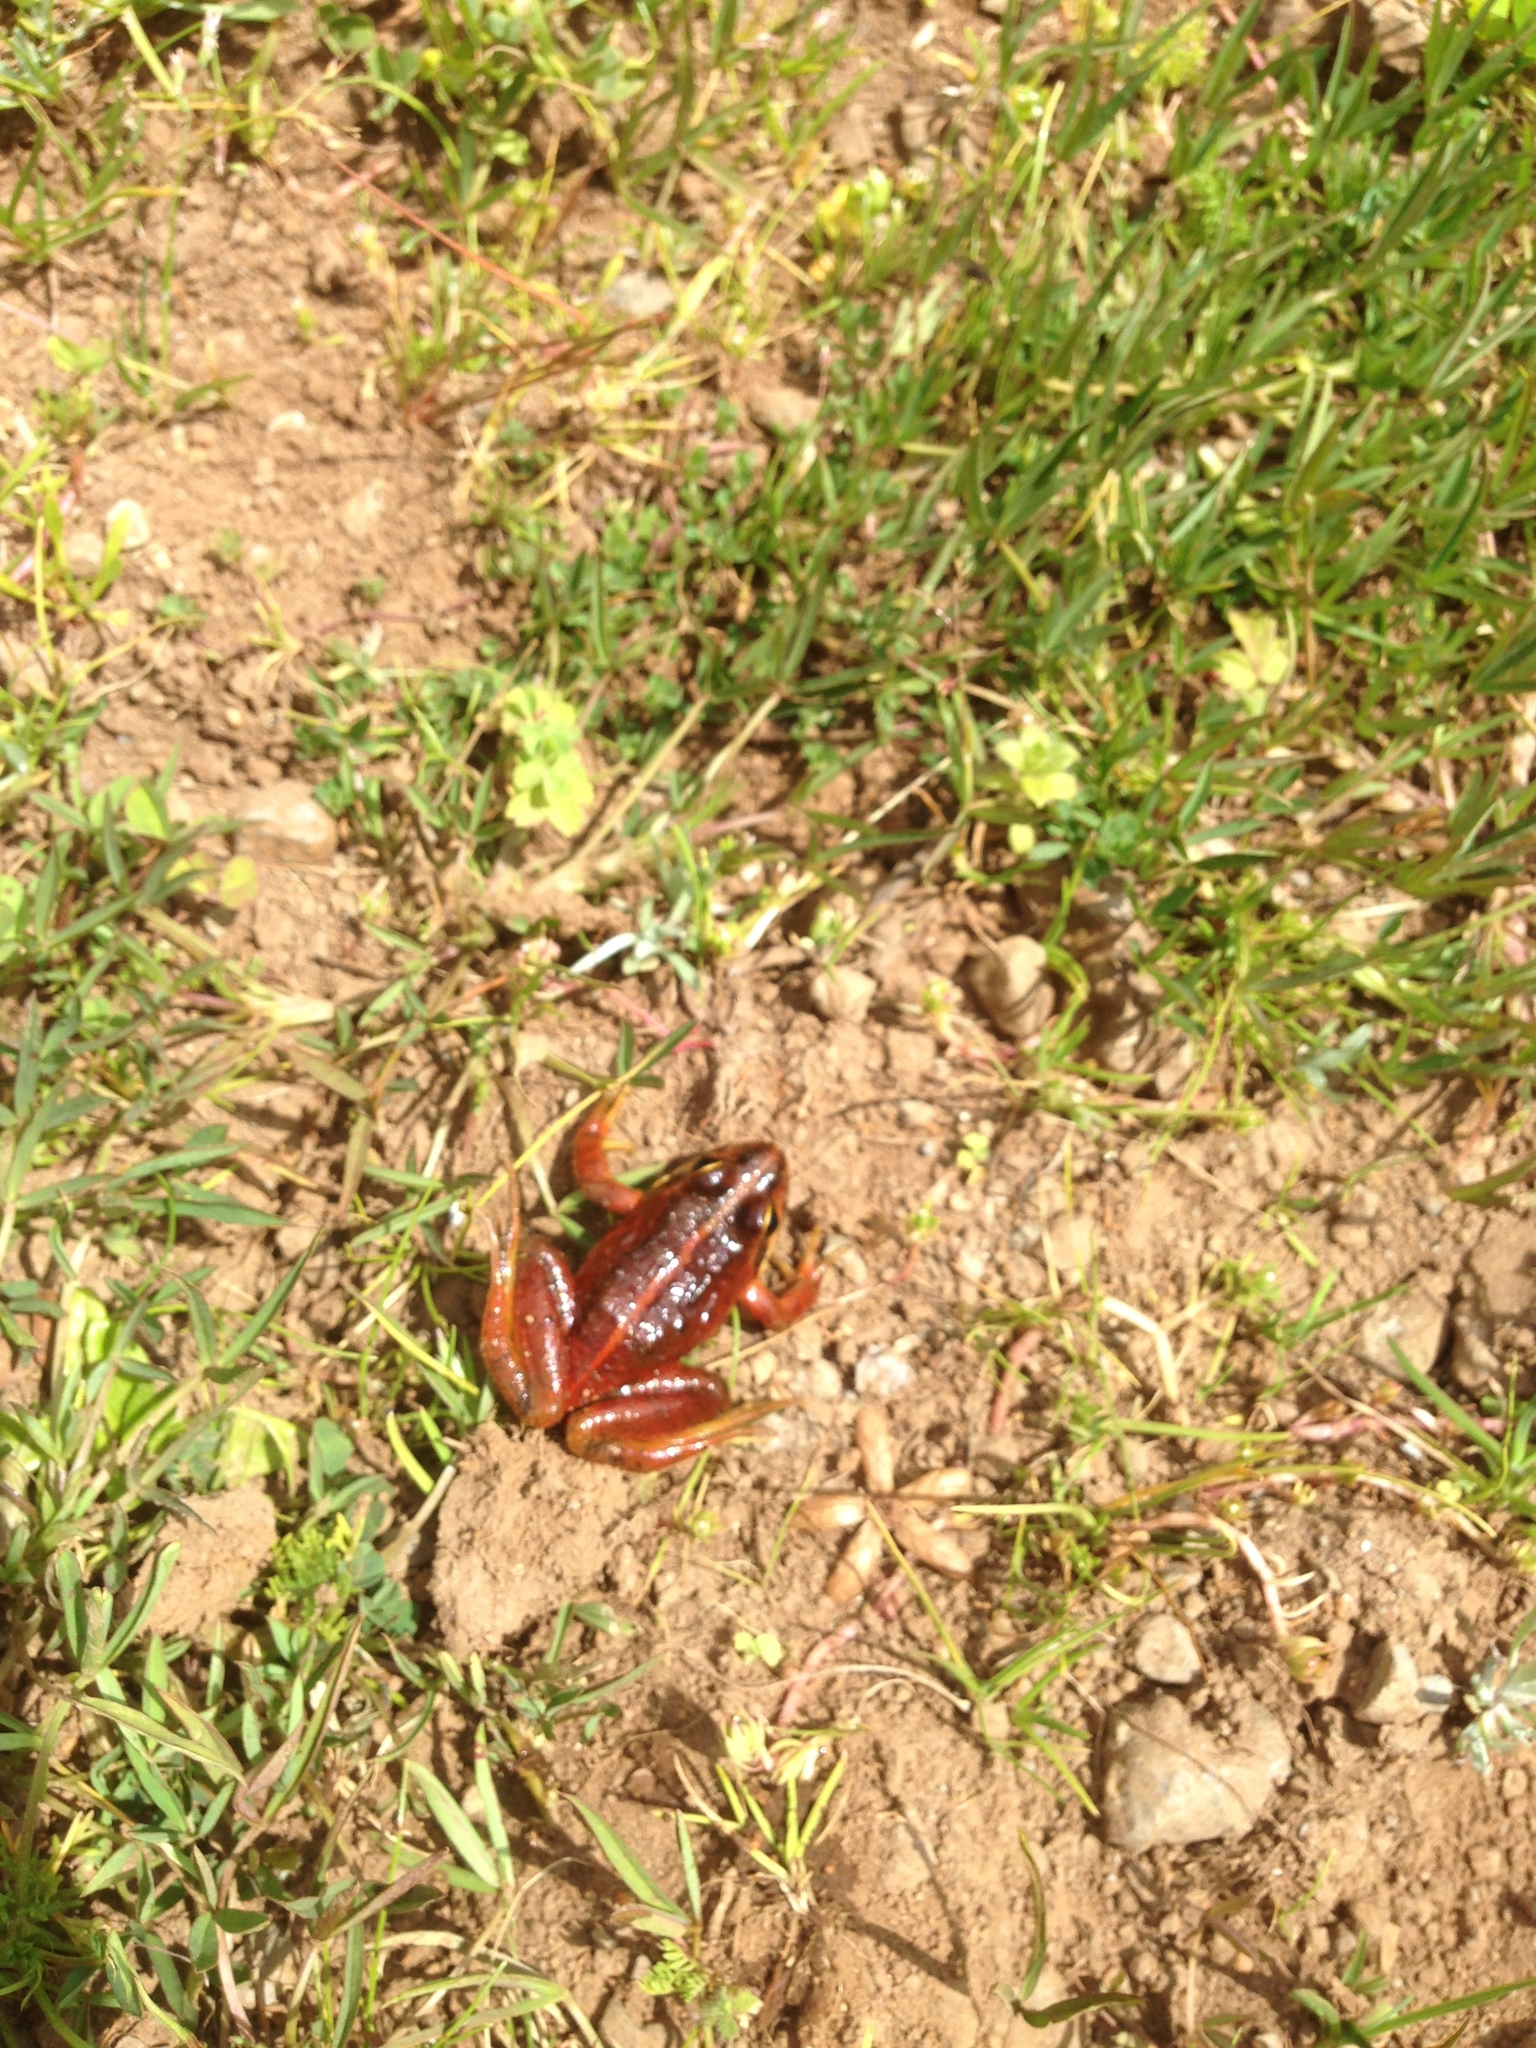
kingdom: Animalia
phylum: Chordata
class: Amphibia
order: Anura
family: Pyxicephalidae
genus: Amietia
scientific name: Amietia wittei
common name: Molo frog
